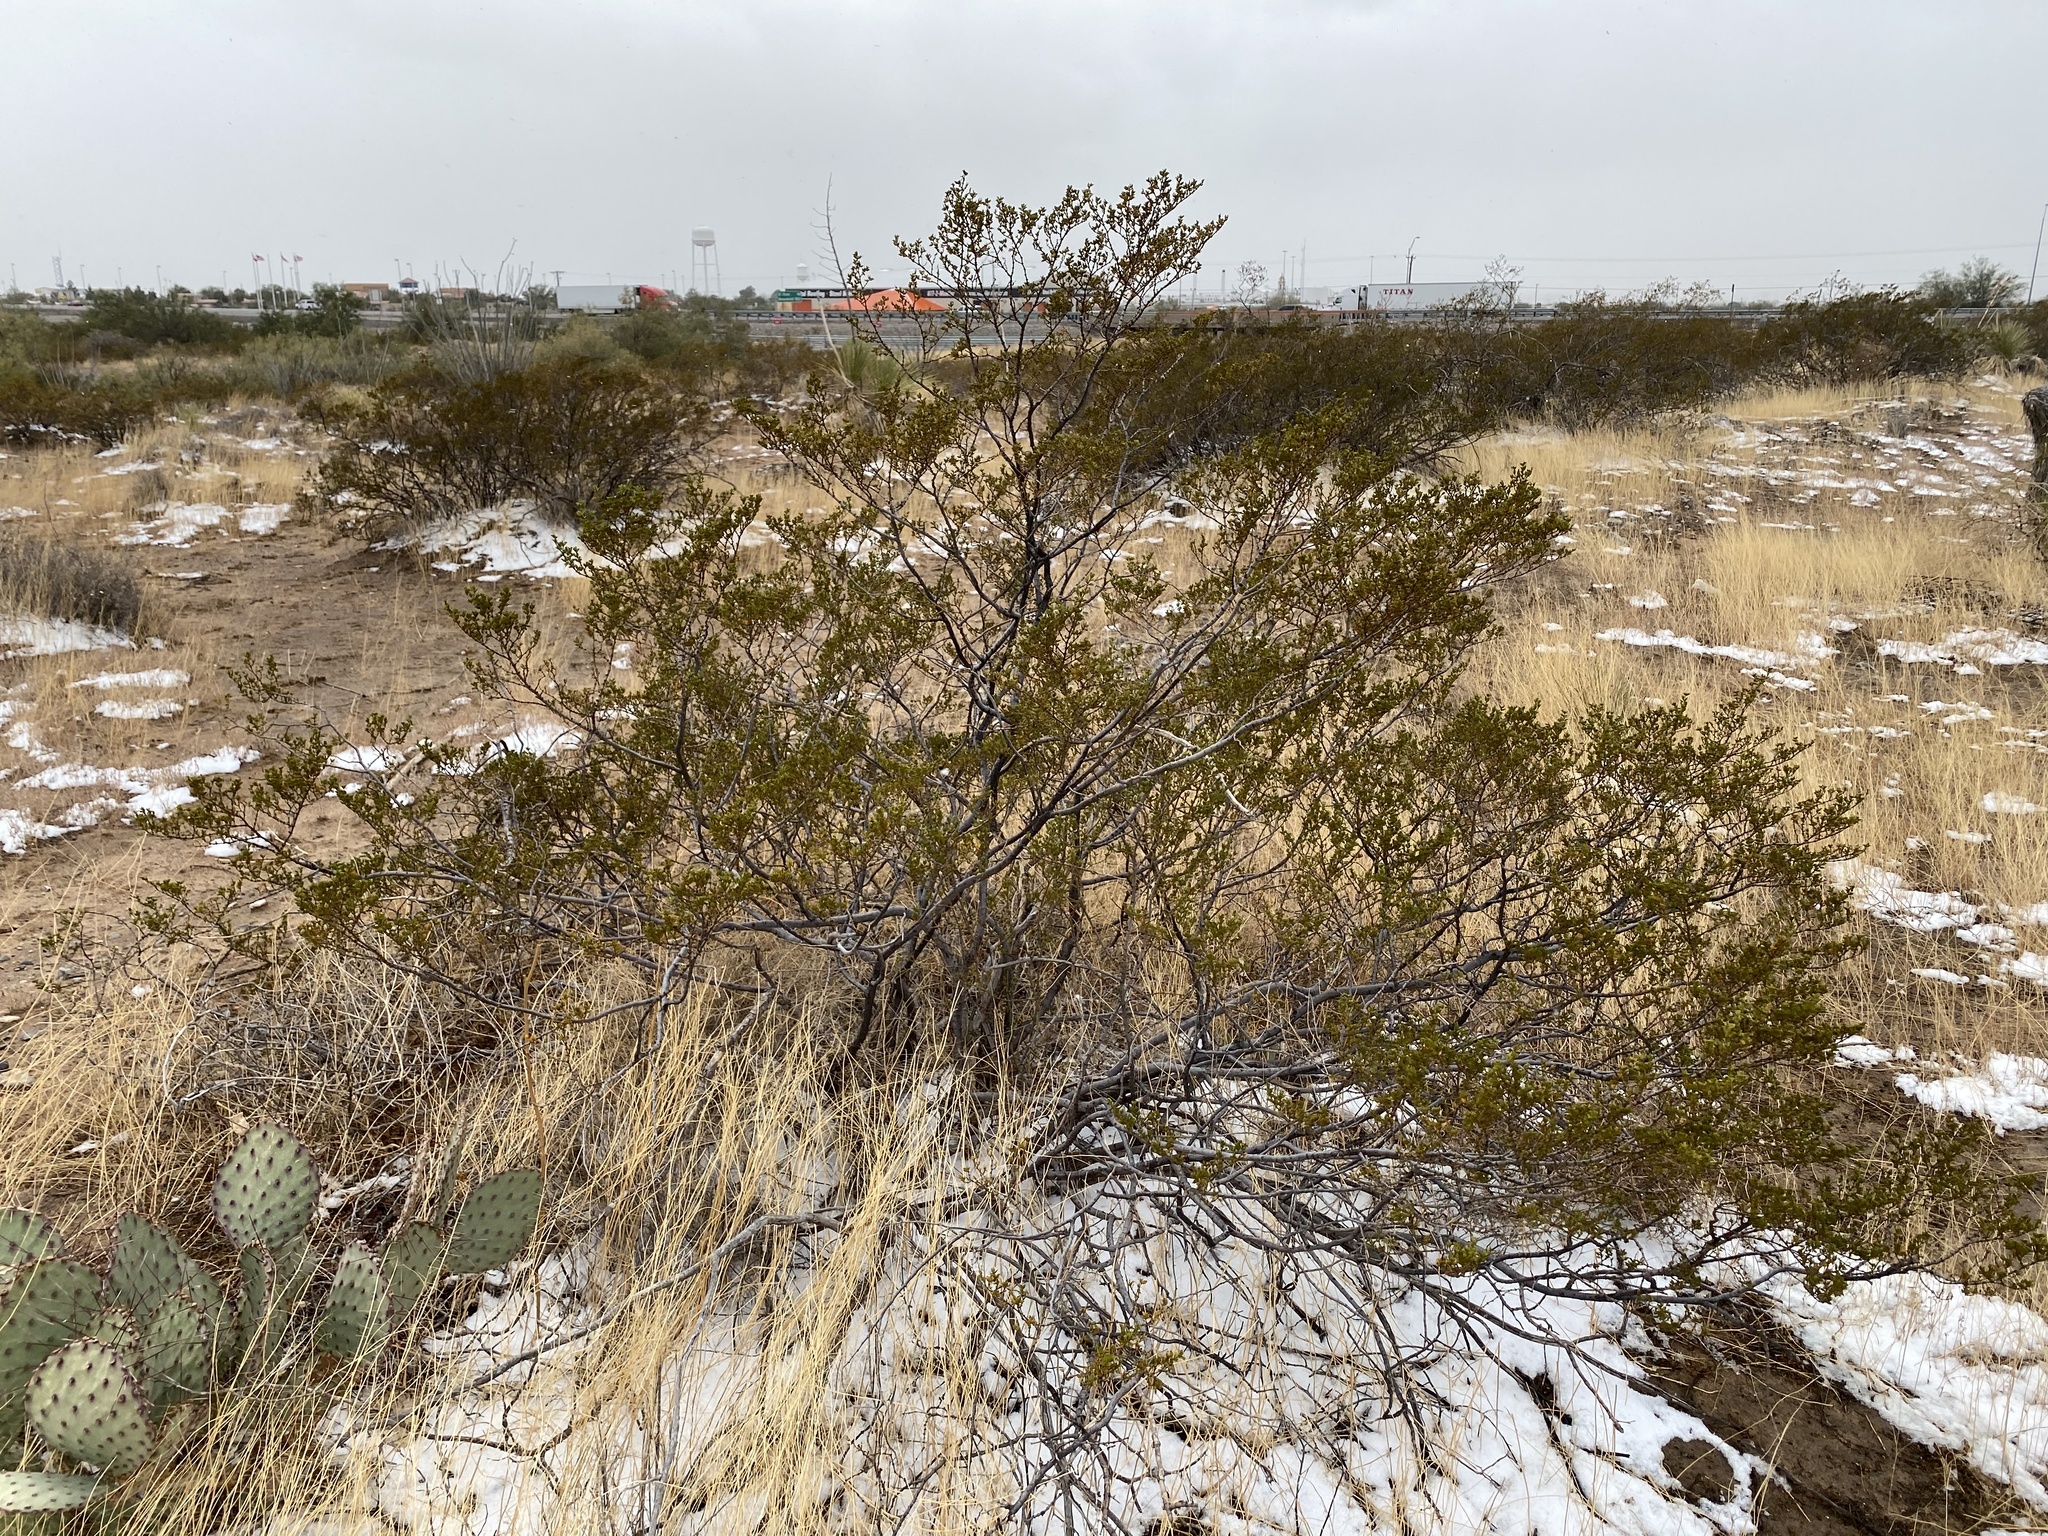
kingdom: Plantae
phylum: Tracheophyta
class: Magnoliopsida
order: Zygophyllales
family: Zygophyllaceae
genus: Larrea
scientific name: Larrea tridentata
